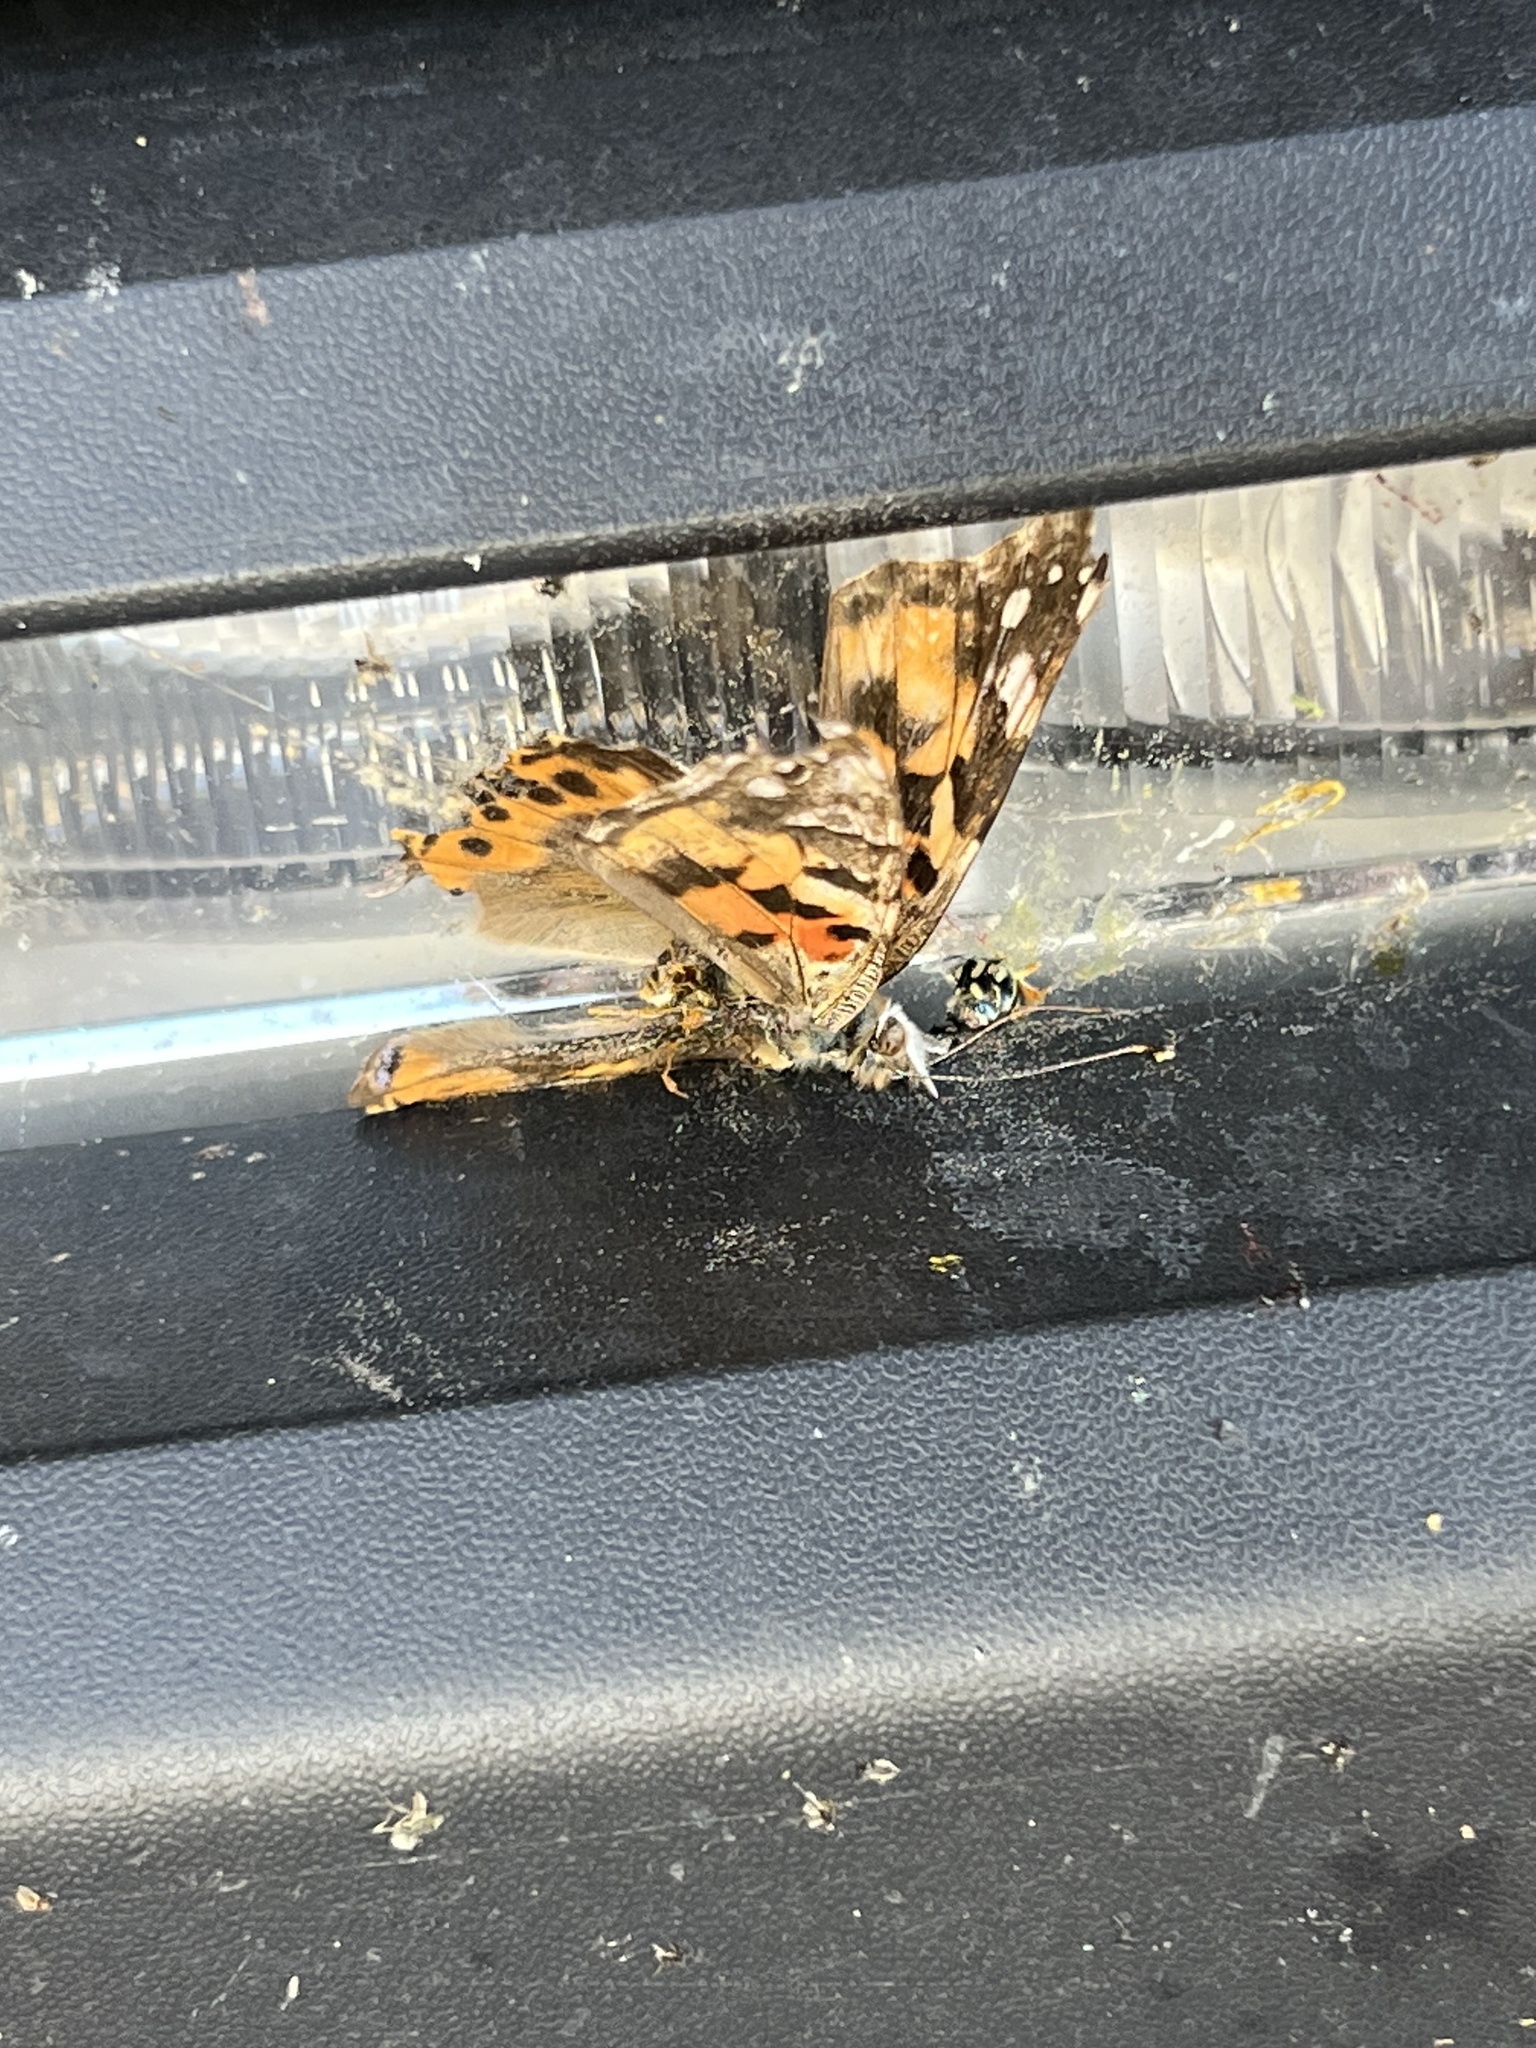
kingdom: Animalia
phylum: Arthropoda
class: Insecta
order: Lepidoptera
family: Nymphalidae
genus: Vanessa
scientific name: Vanessa cardui
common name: Painted lady
